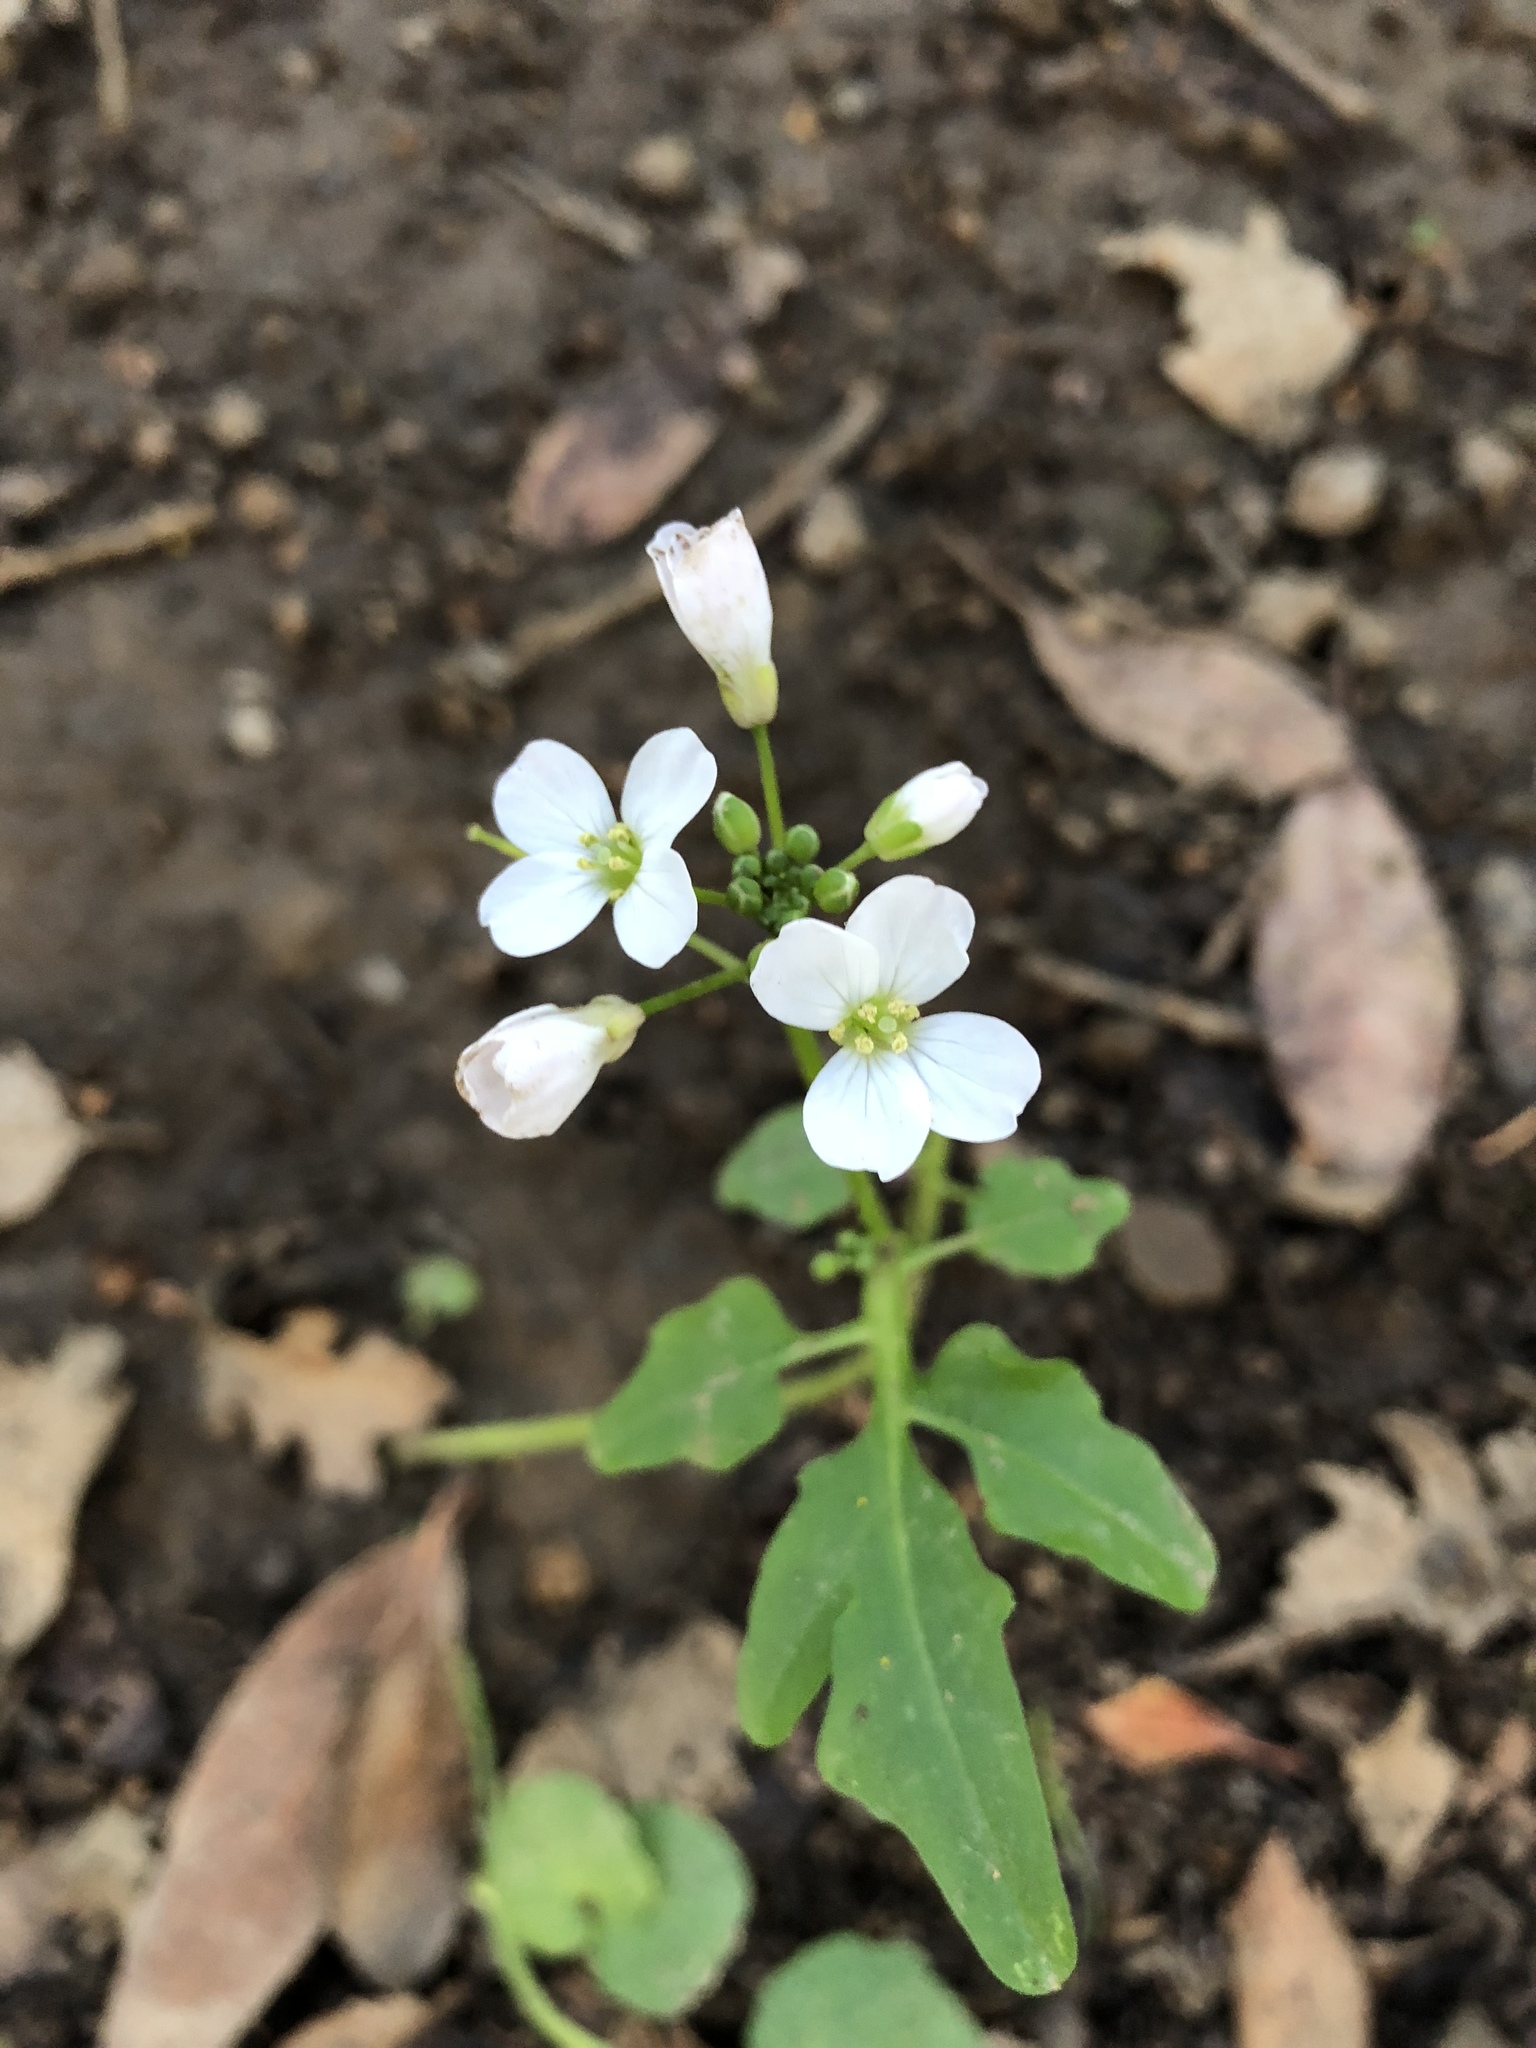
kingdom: Plantae
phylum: Tracheophyta
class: Magnoliopsida
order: Brassicales
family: Brassicaceae
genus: Cardamine
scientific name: Cardamine californica
